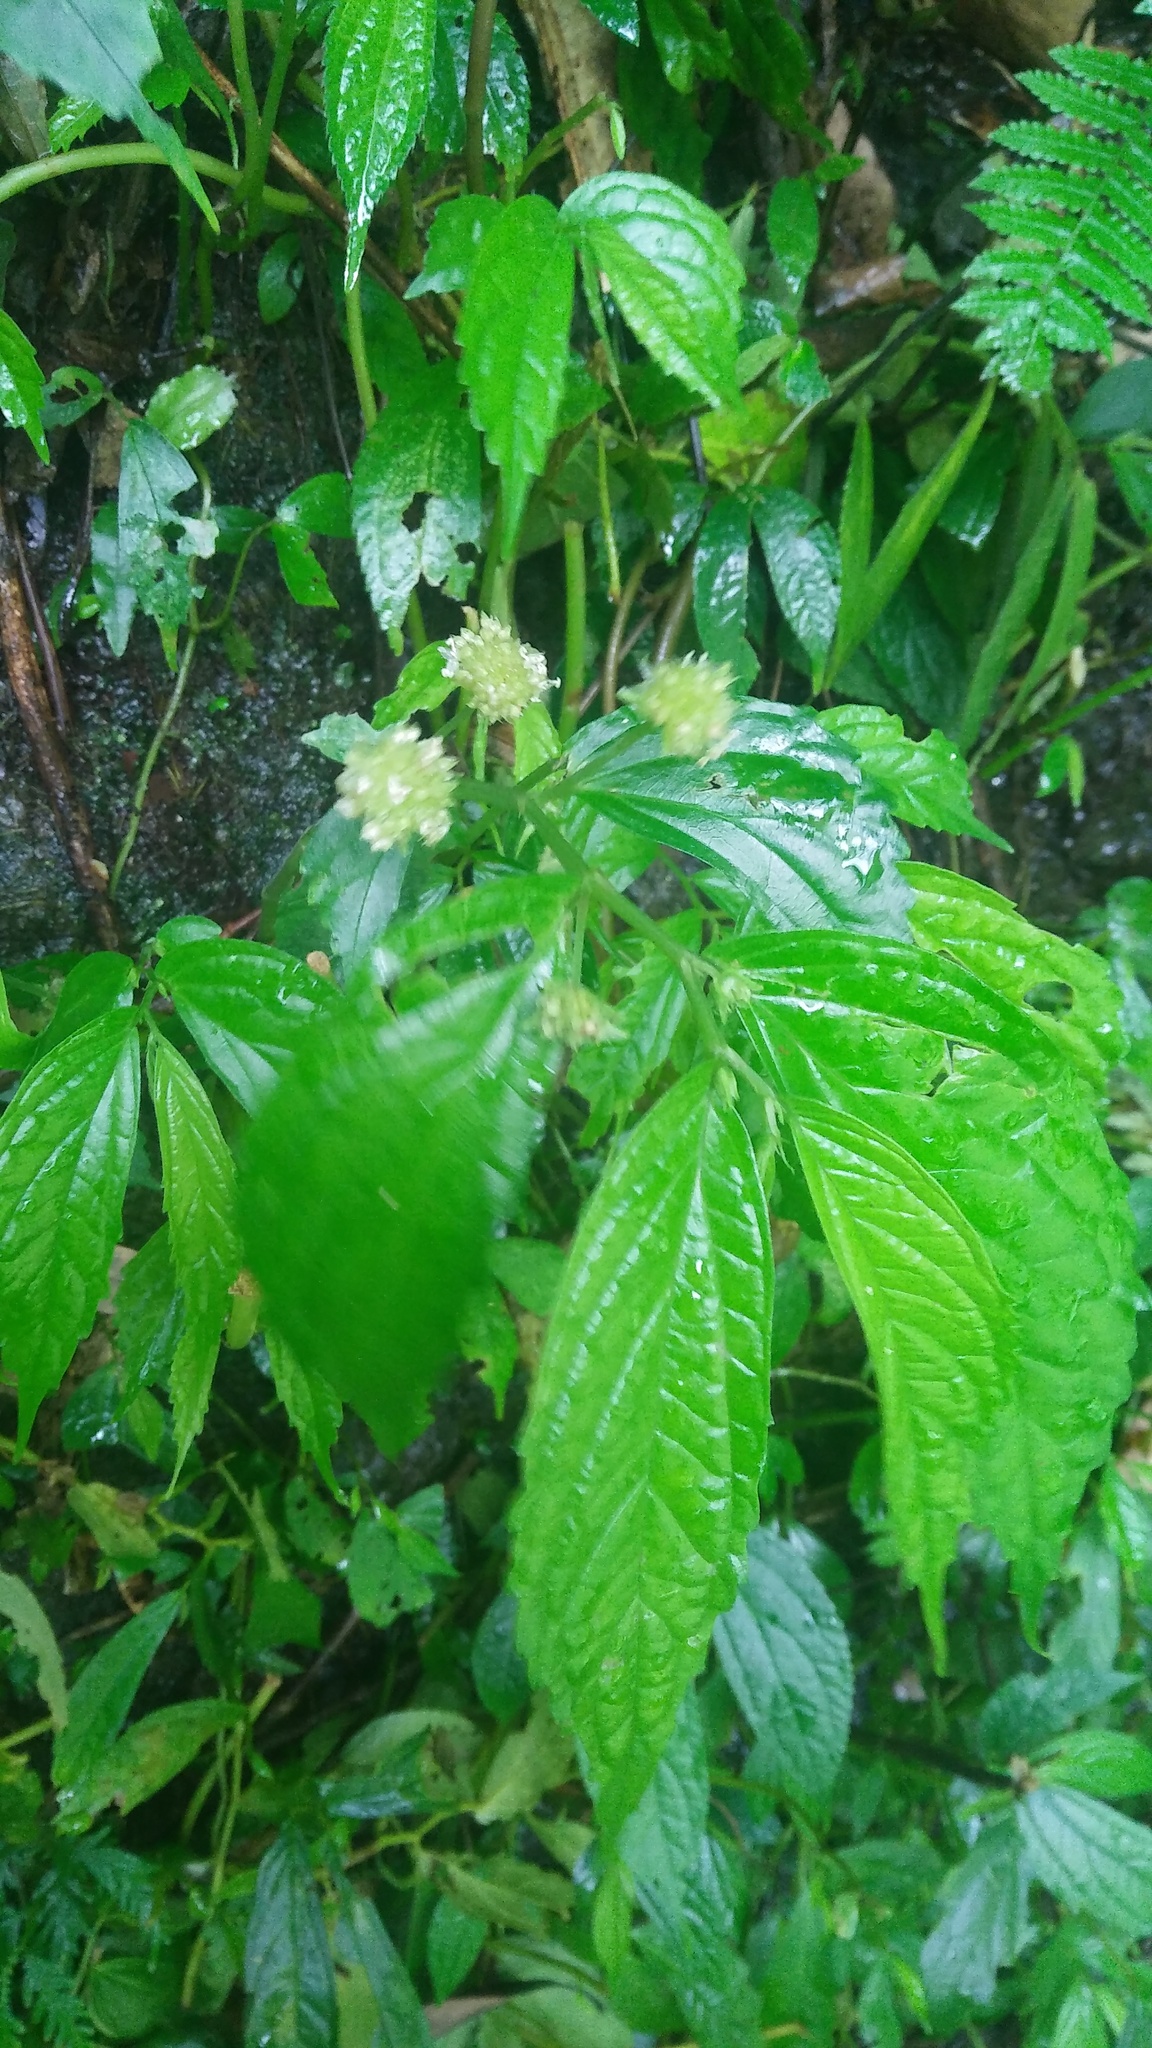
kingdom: Plantae
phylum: Tracheophyta
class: Magnoliopsida
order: Rosales
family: Urticaceae
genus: Elatostema
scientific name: Elatostema hirtellipedunculatum
